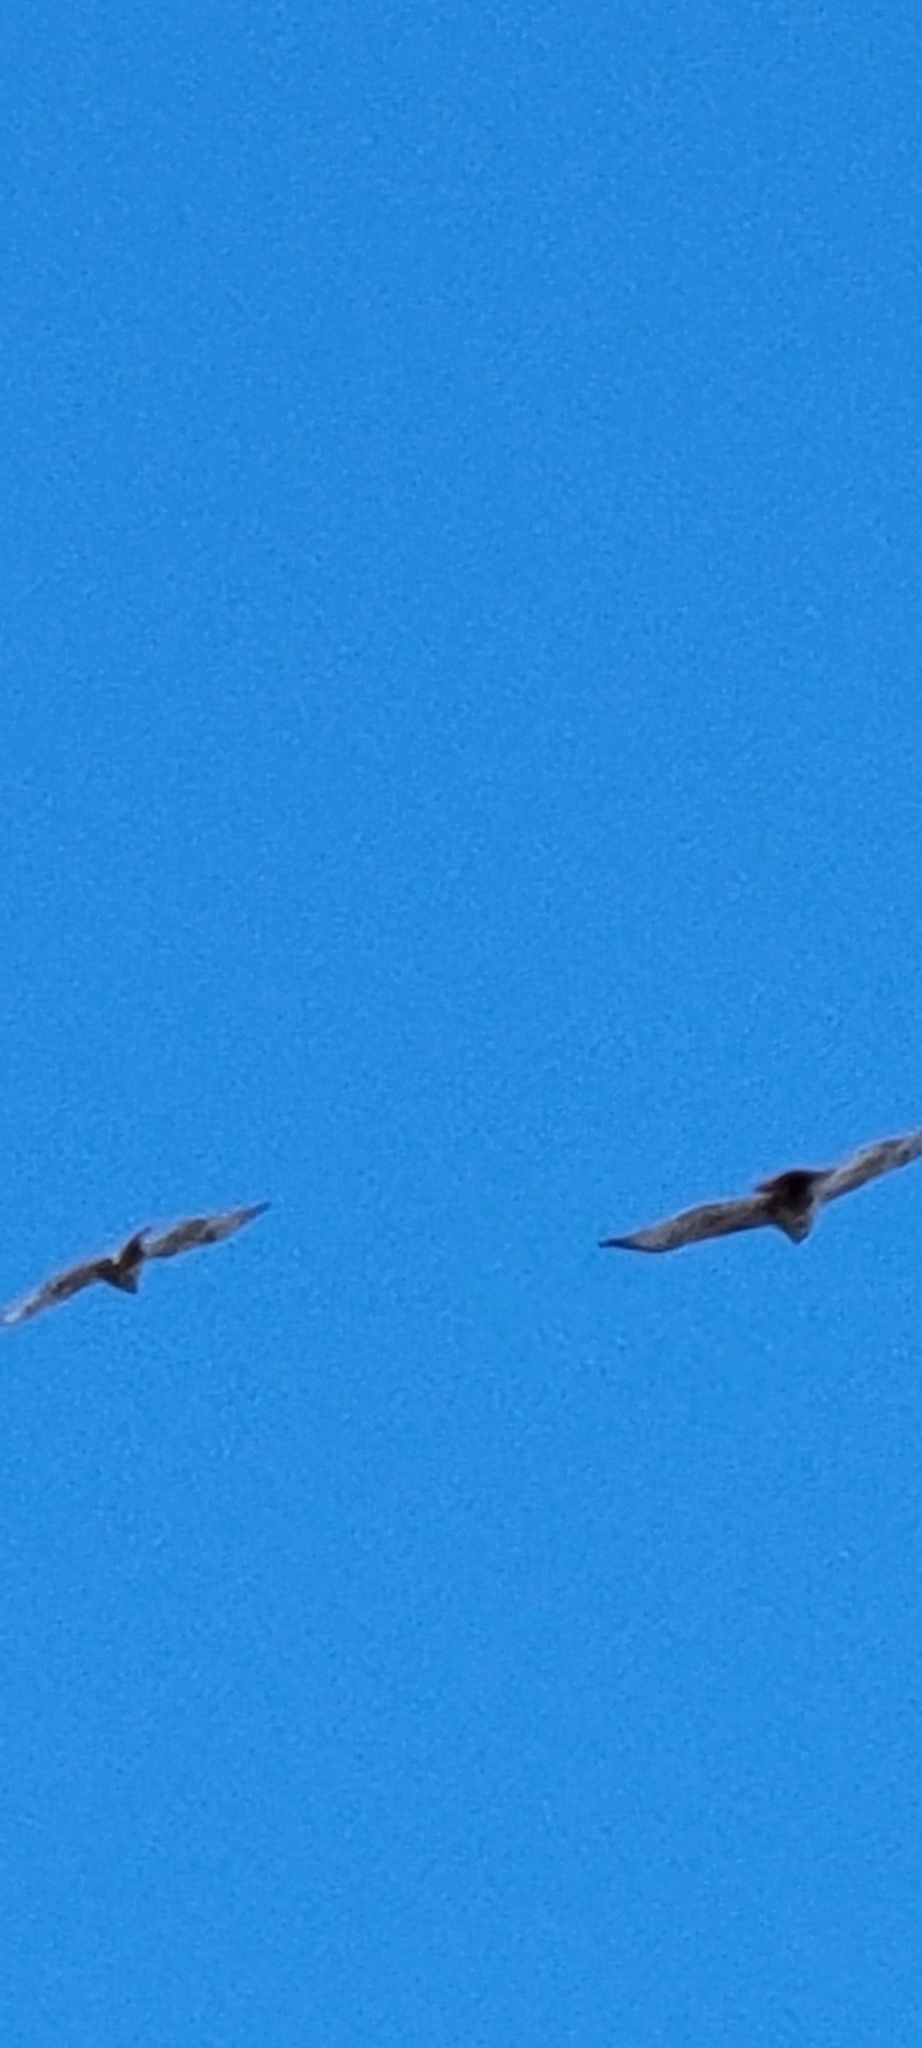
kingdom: Animalia
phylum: Chordata
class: Aves
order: Accipitriformes
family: Accipitridae
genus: Buteo
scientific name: Buteo jamaicensis
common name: Red-tailed hawk
